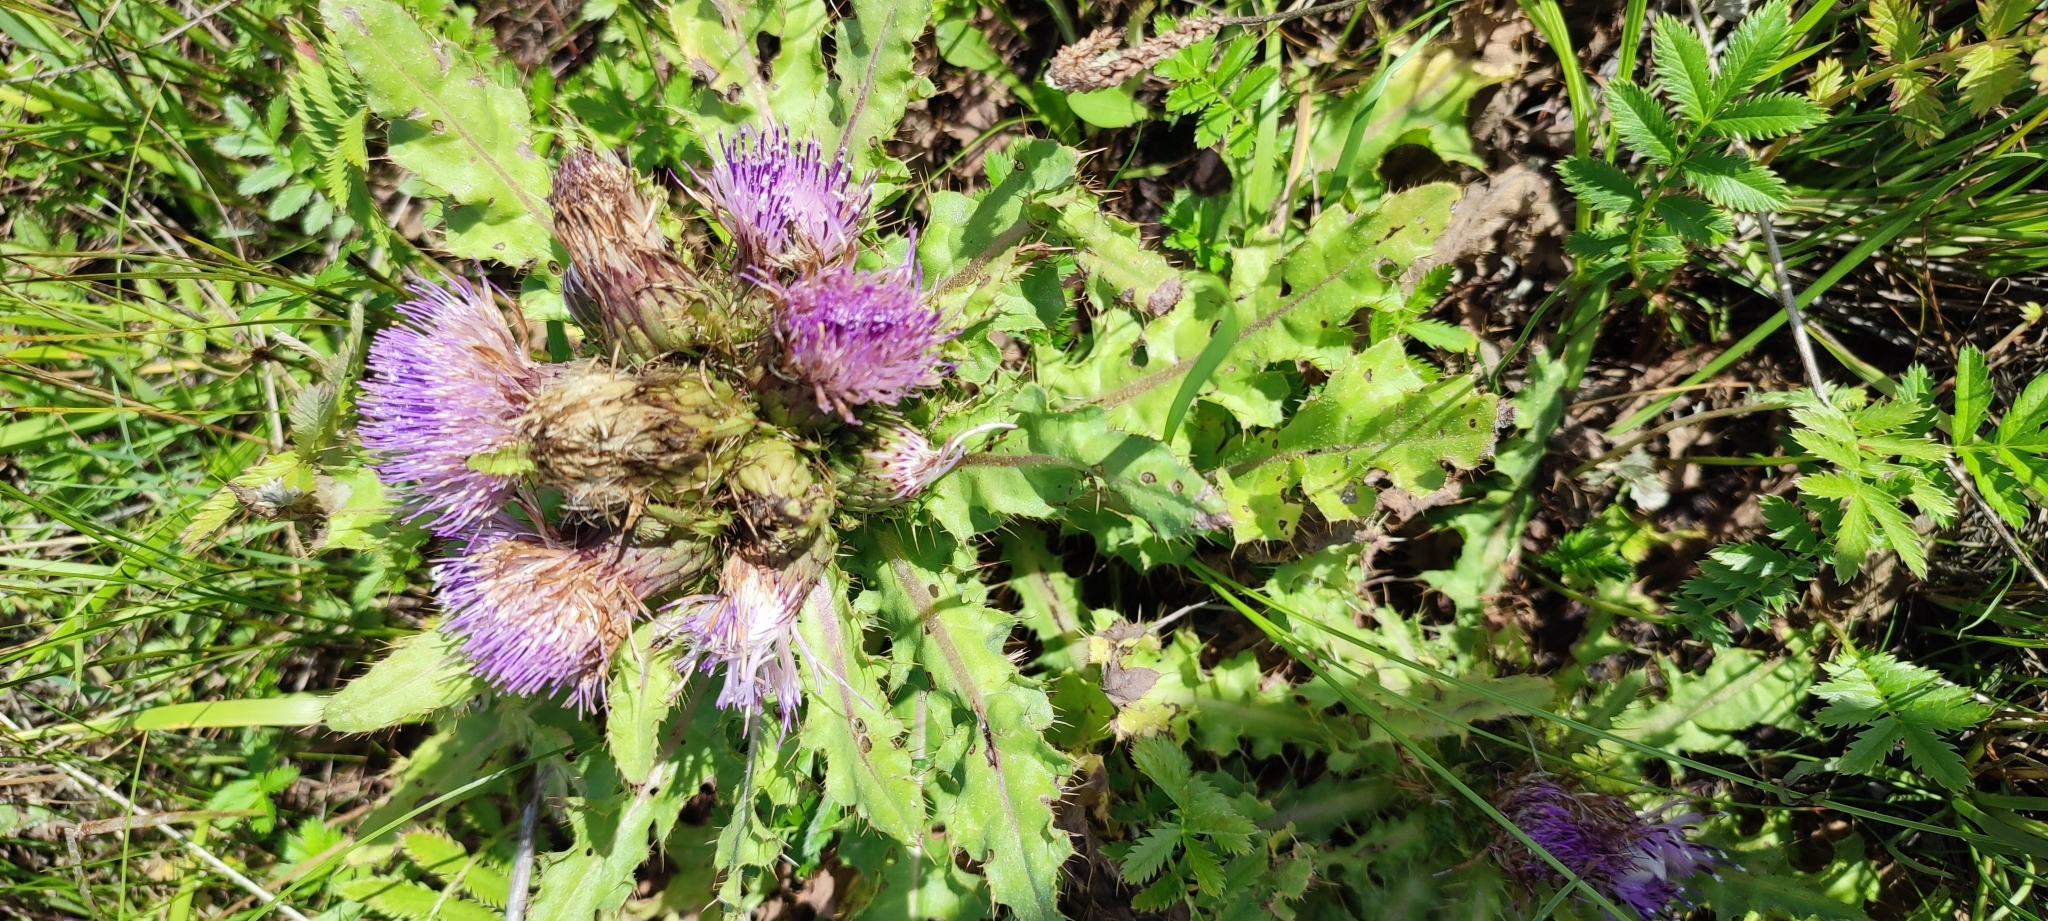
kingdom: Plantae
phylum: Tracheophyta
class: Magnoliopsida
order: Asterales
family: Asteraceae
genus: Cirsium
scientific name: Cirsium esculentum
